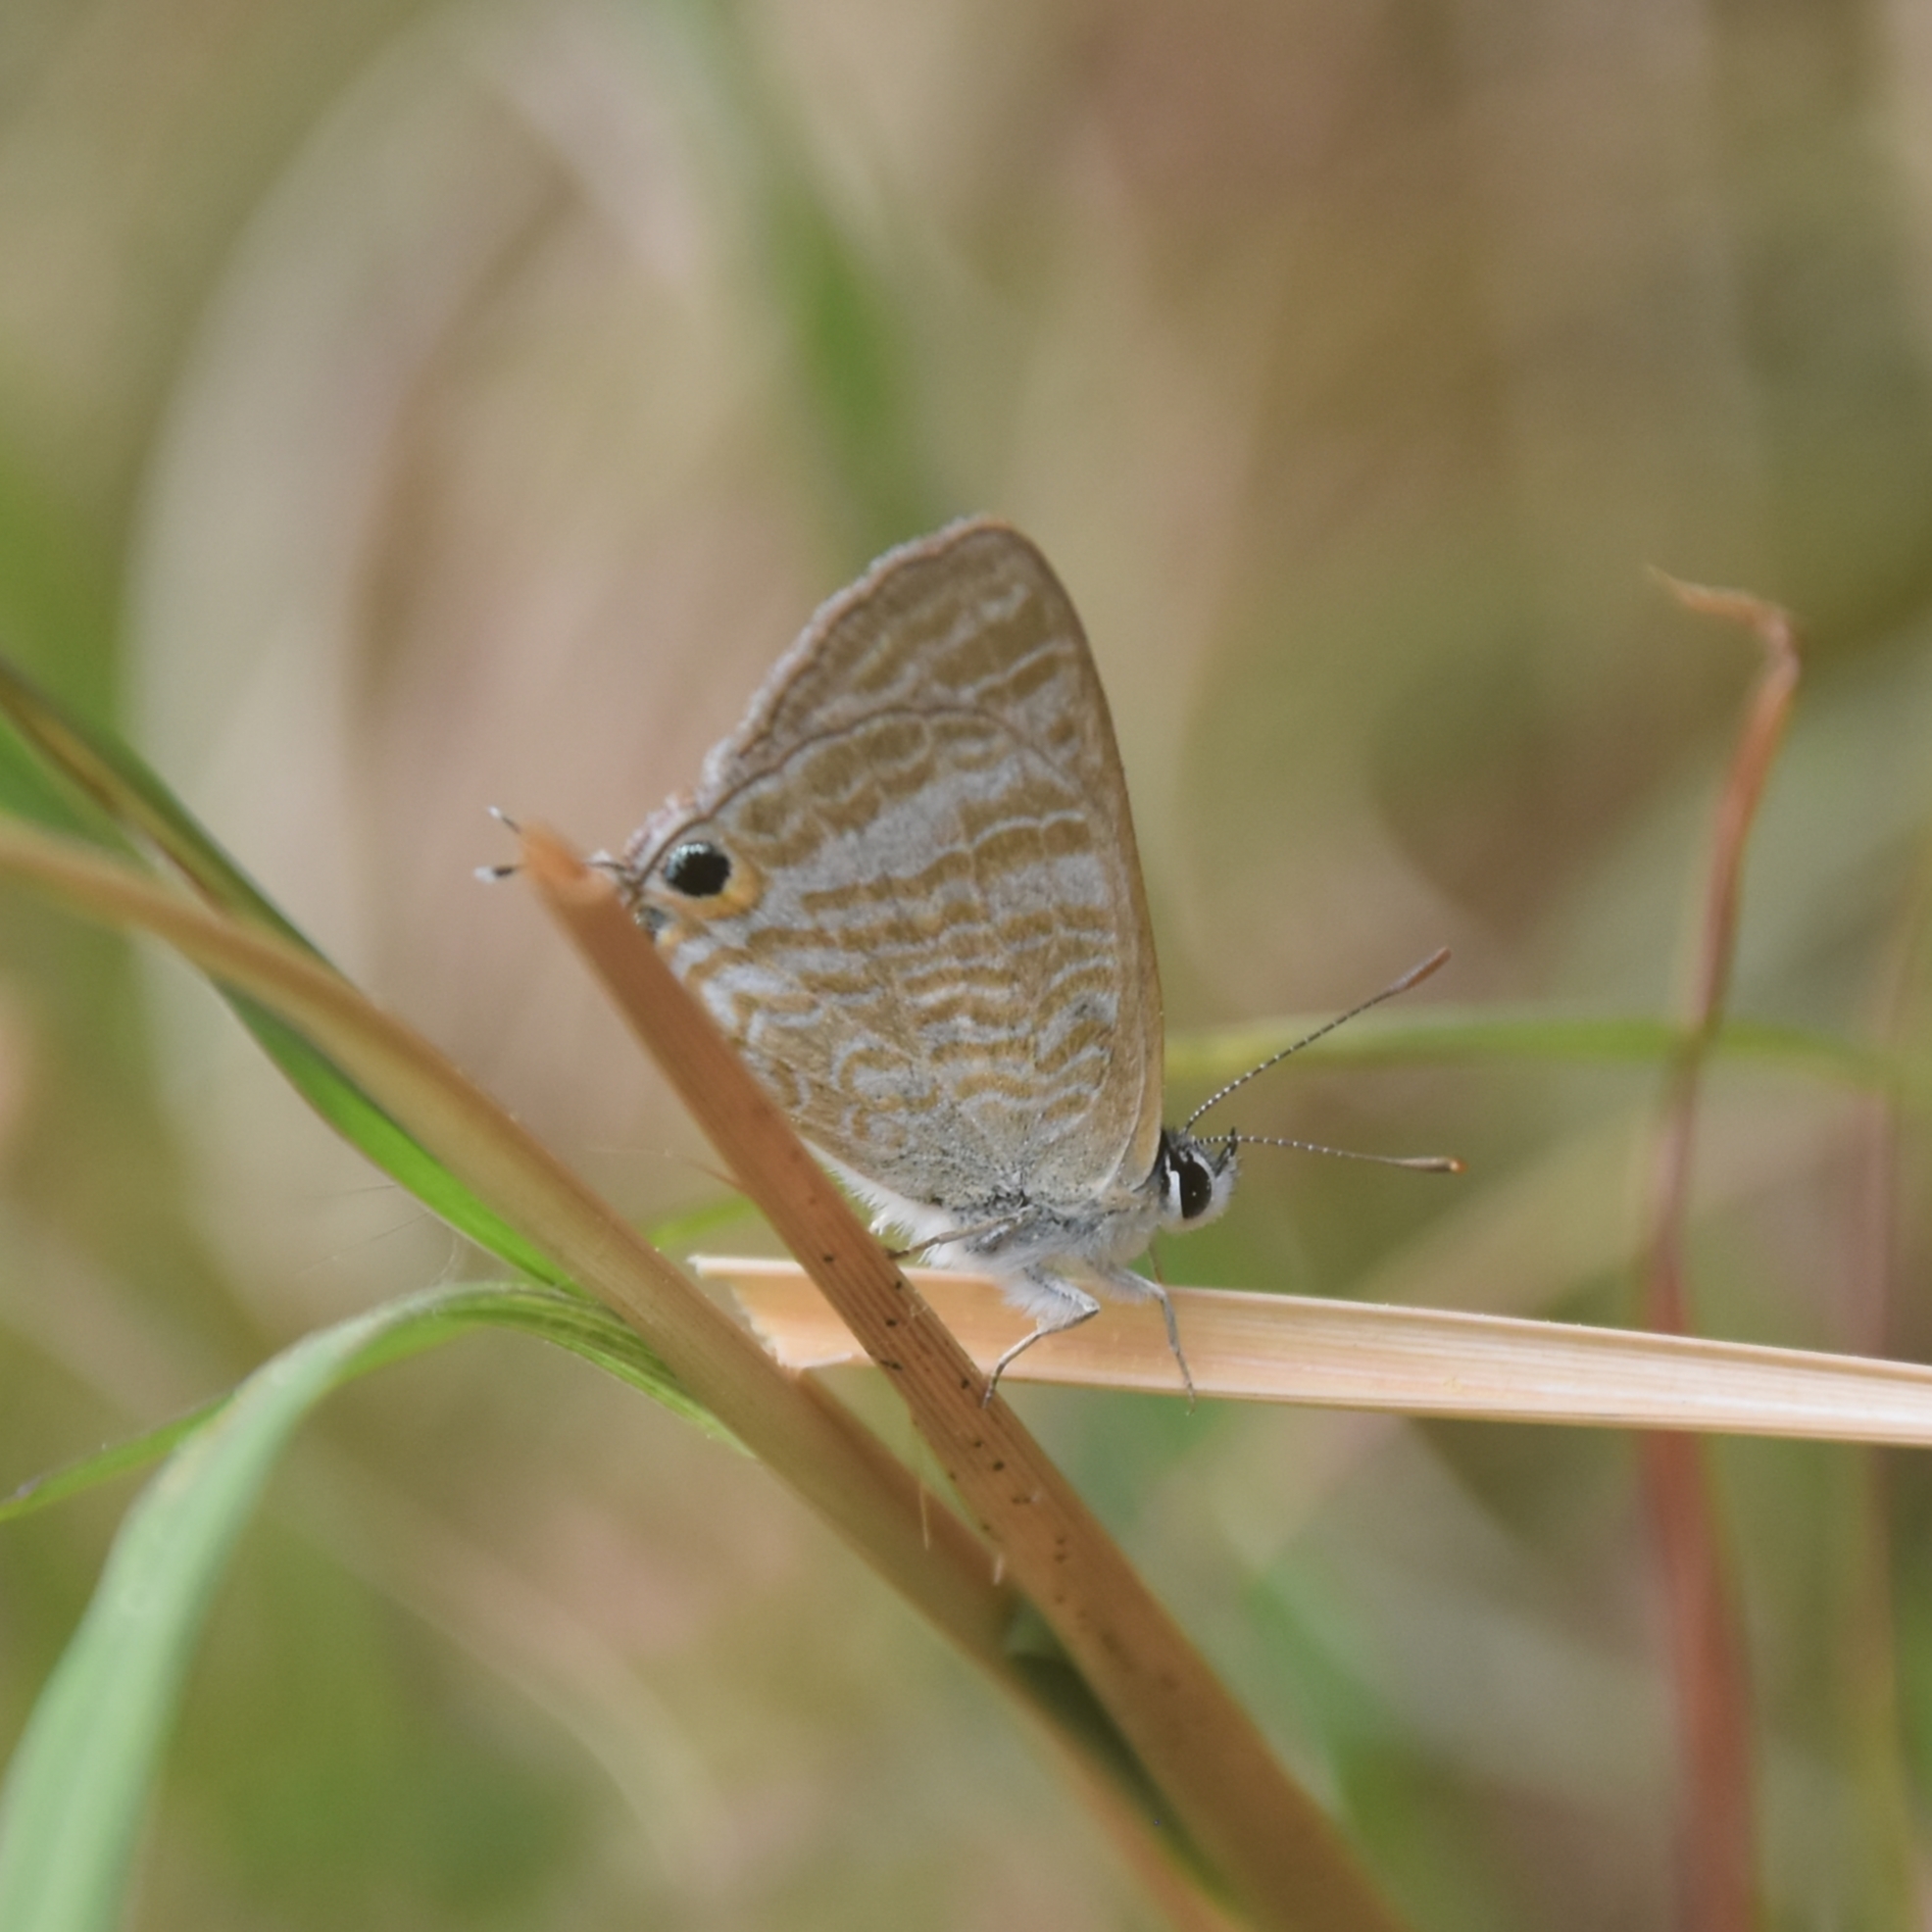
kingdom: Animalia
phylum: Arthropoda
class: Insecta
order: Lepidoptera
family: Lycaenidae
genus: Lampides
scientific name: Lampides boeticus
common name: Long-tailed blue
